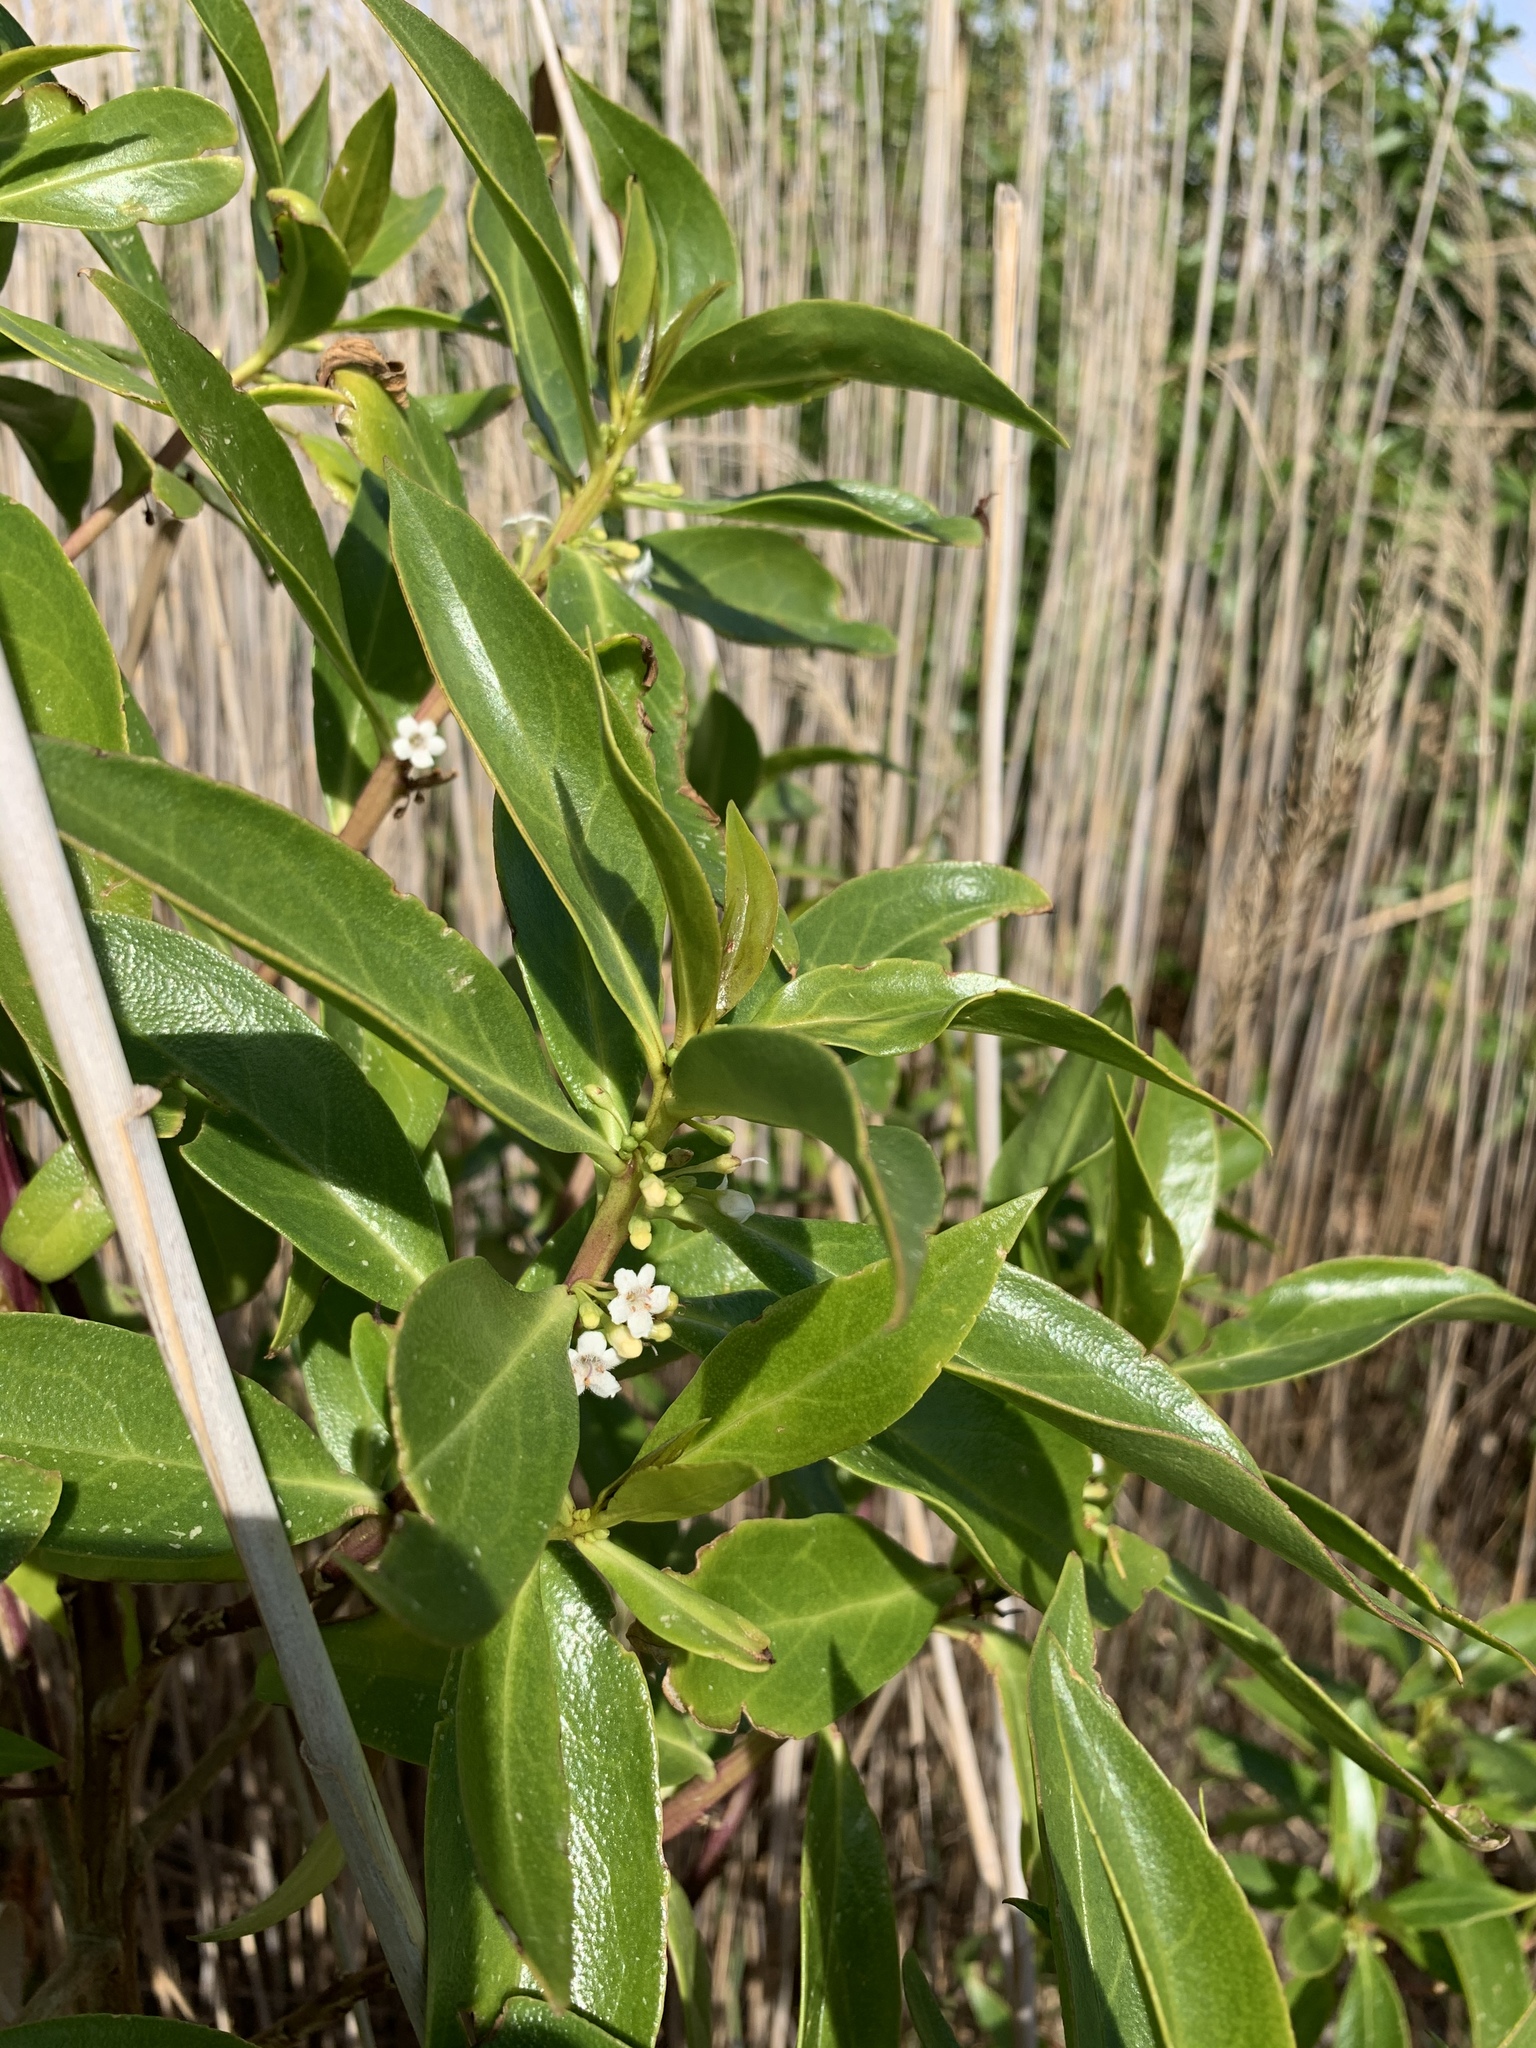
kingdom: Plantae
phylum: Tracheophyta
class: Magnoliopsida
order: Lamiales
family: Scrophulariaceae
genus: Myoporum
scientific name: Myoporum insulare
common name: Common boobialla
